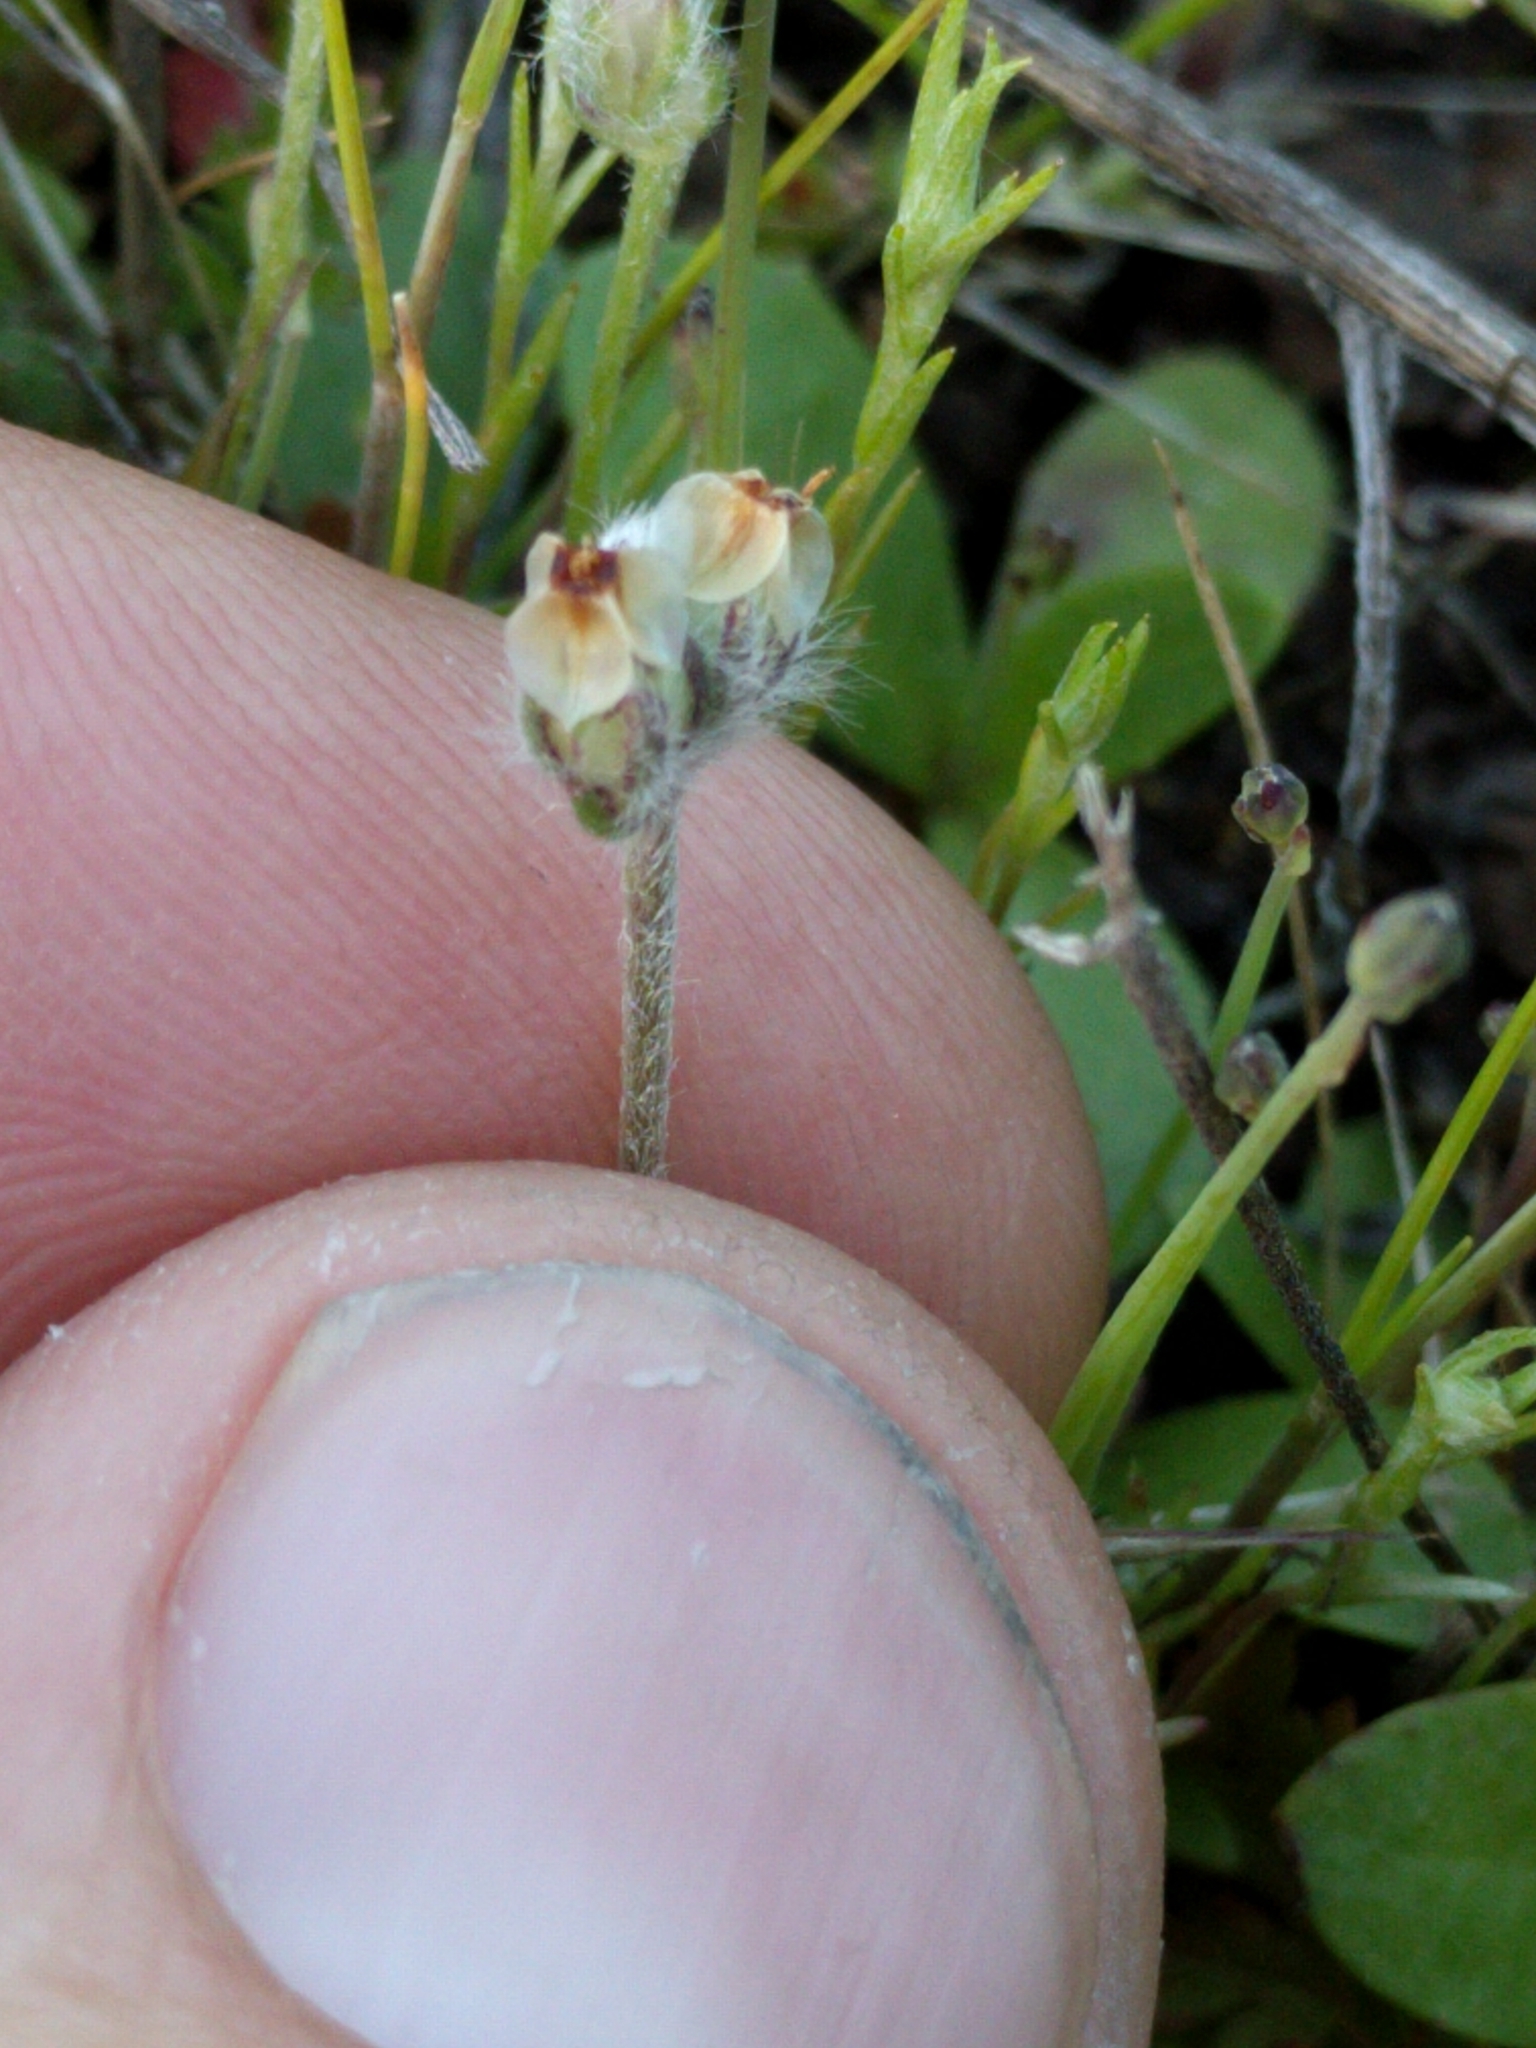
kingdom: Plantae
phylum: Tracheophyta
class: Magnoliopsida
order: Lamiales
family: Plantaginaceae
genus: Plantago
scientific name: Plantago erecta
